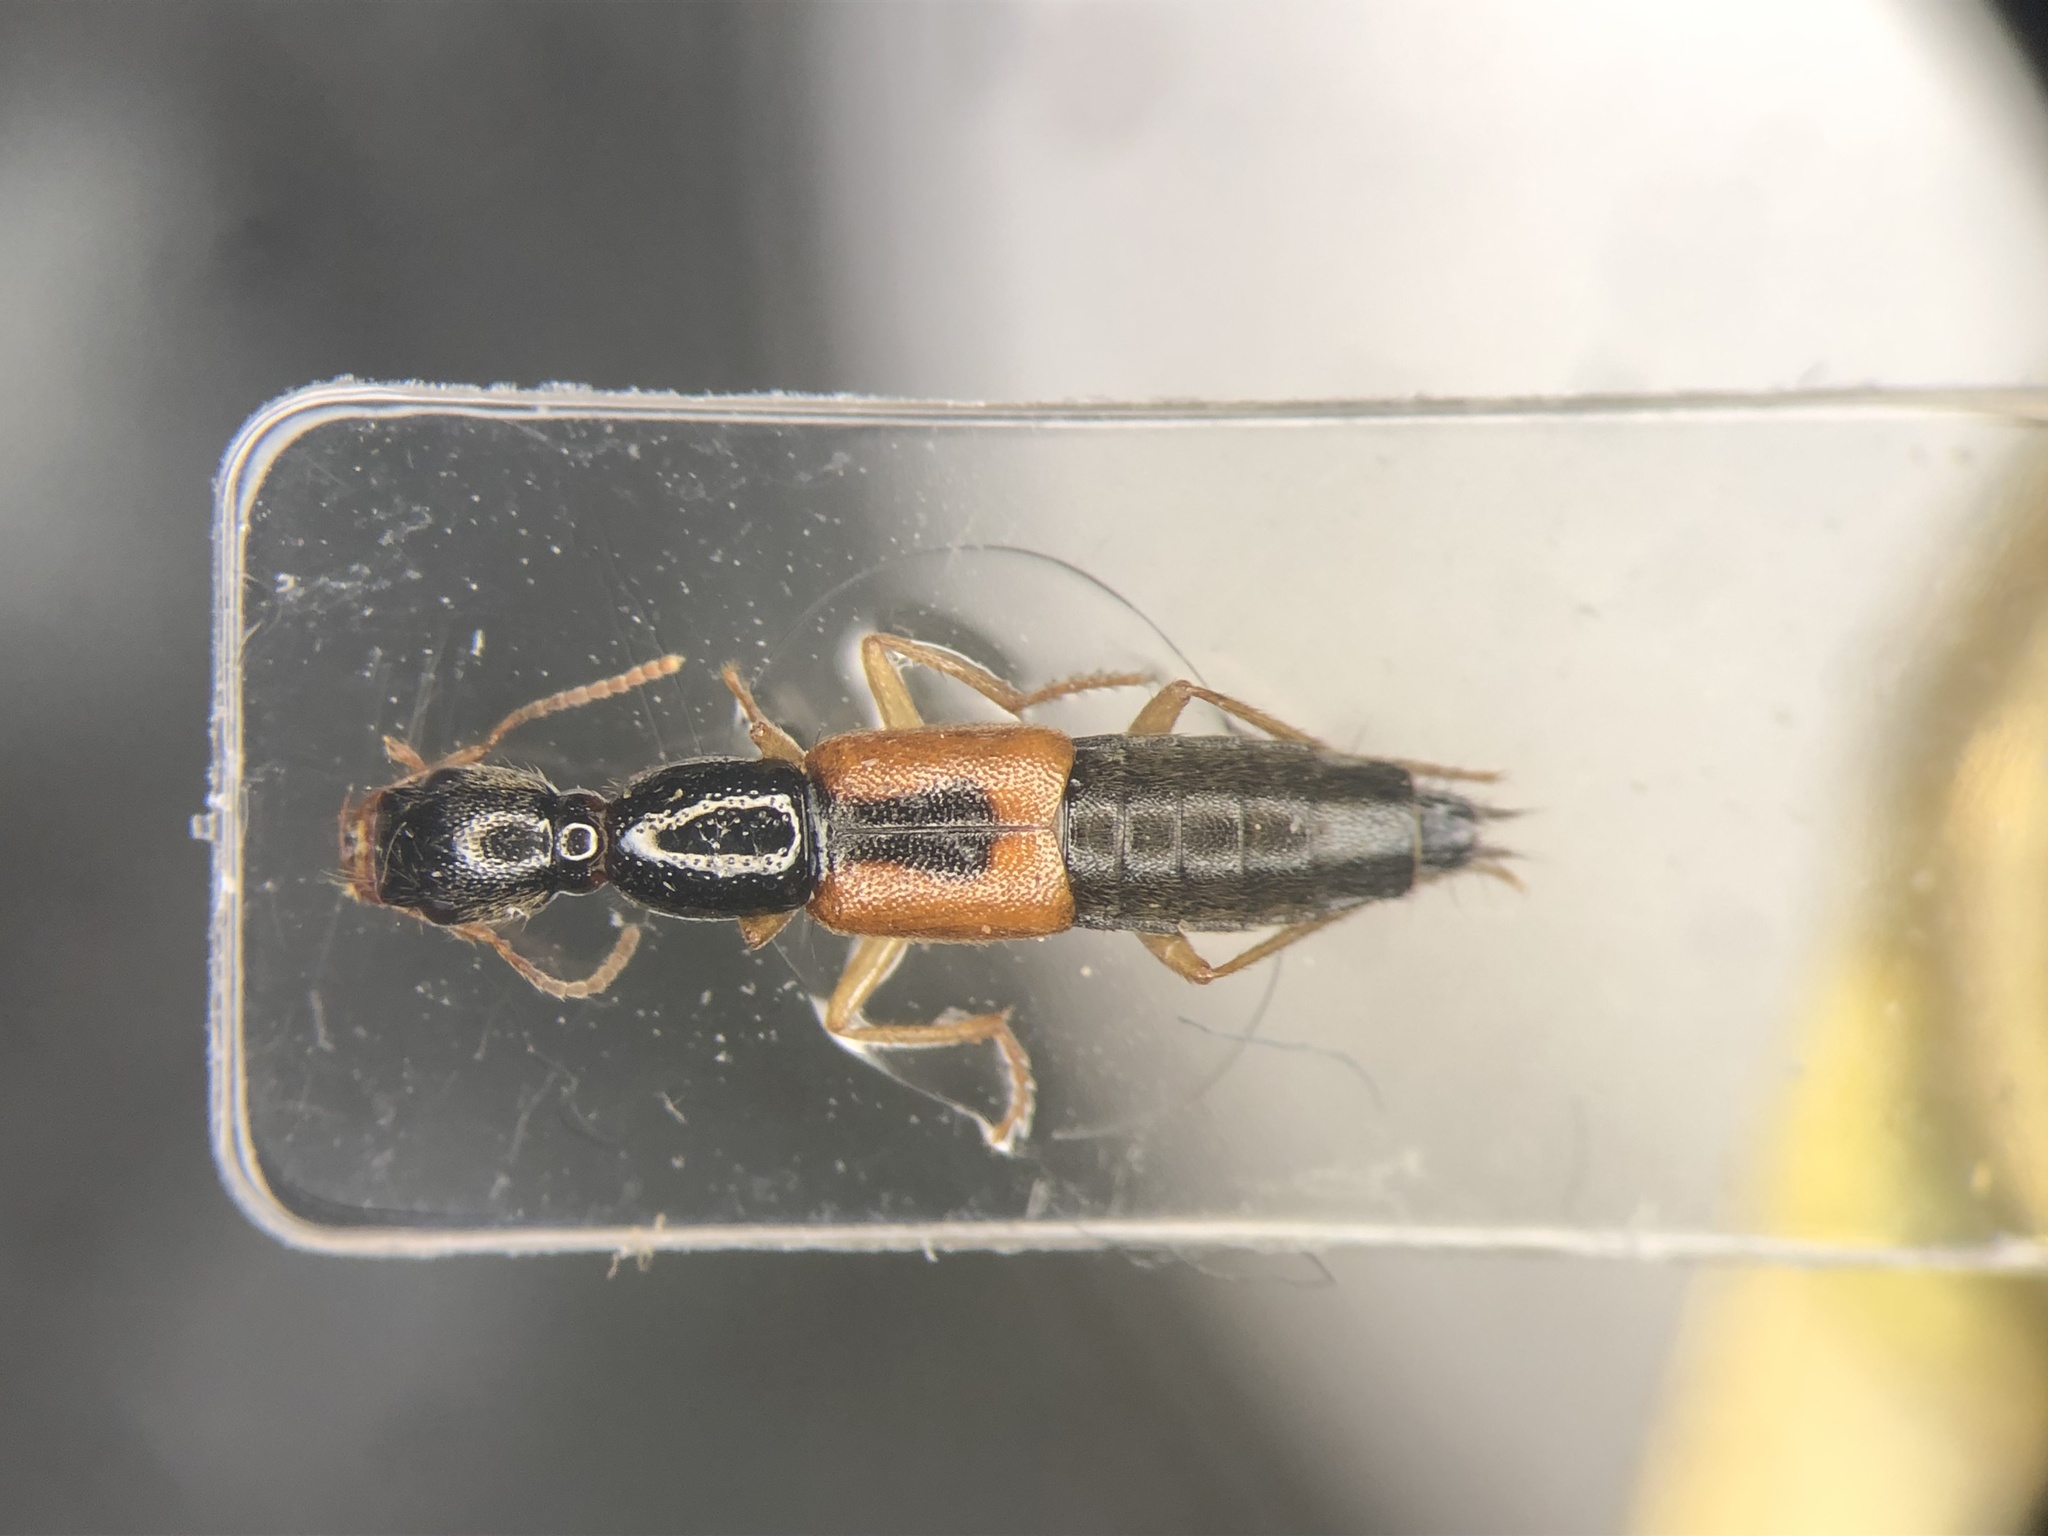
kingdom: Animalia
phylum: Arthropoda
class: Insecta
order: Coleoptera
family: Staphylinidae
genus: Homaeotarsus
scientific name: Homaeotarsus sellatus
